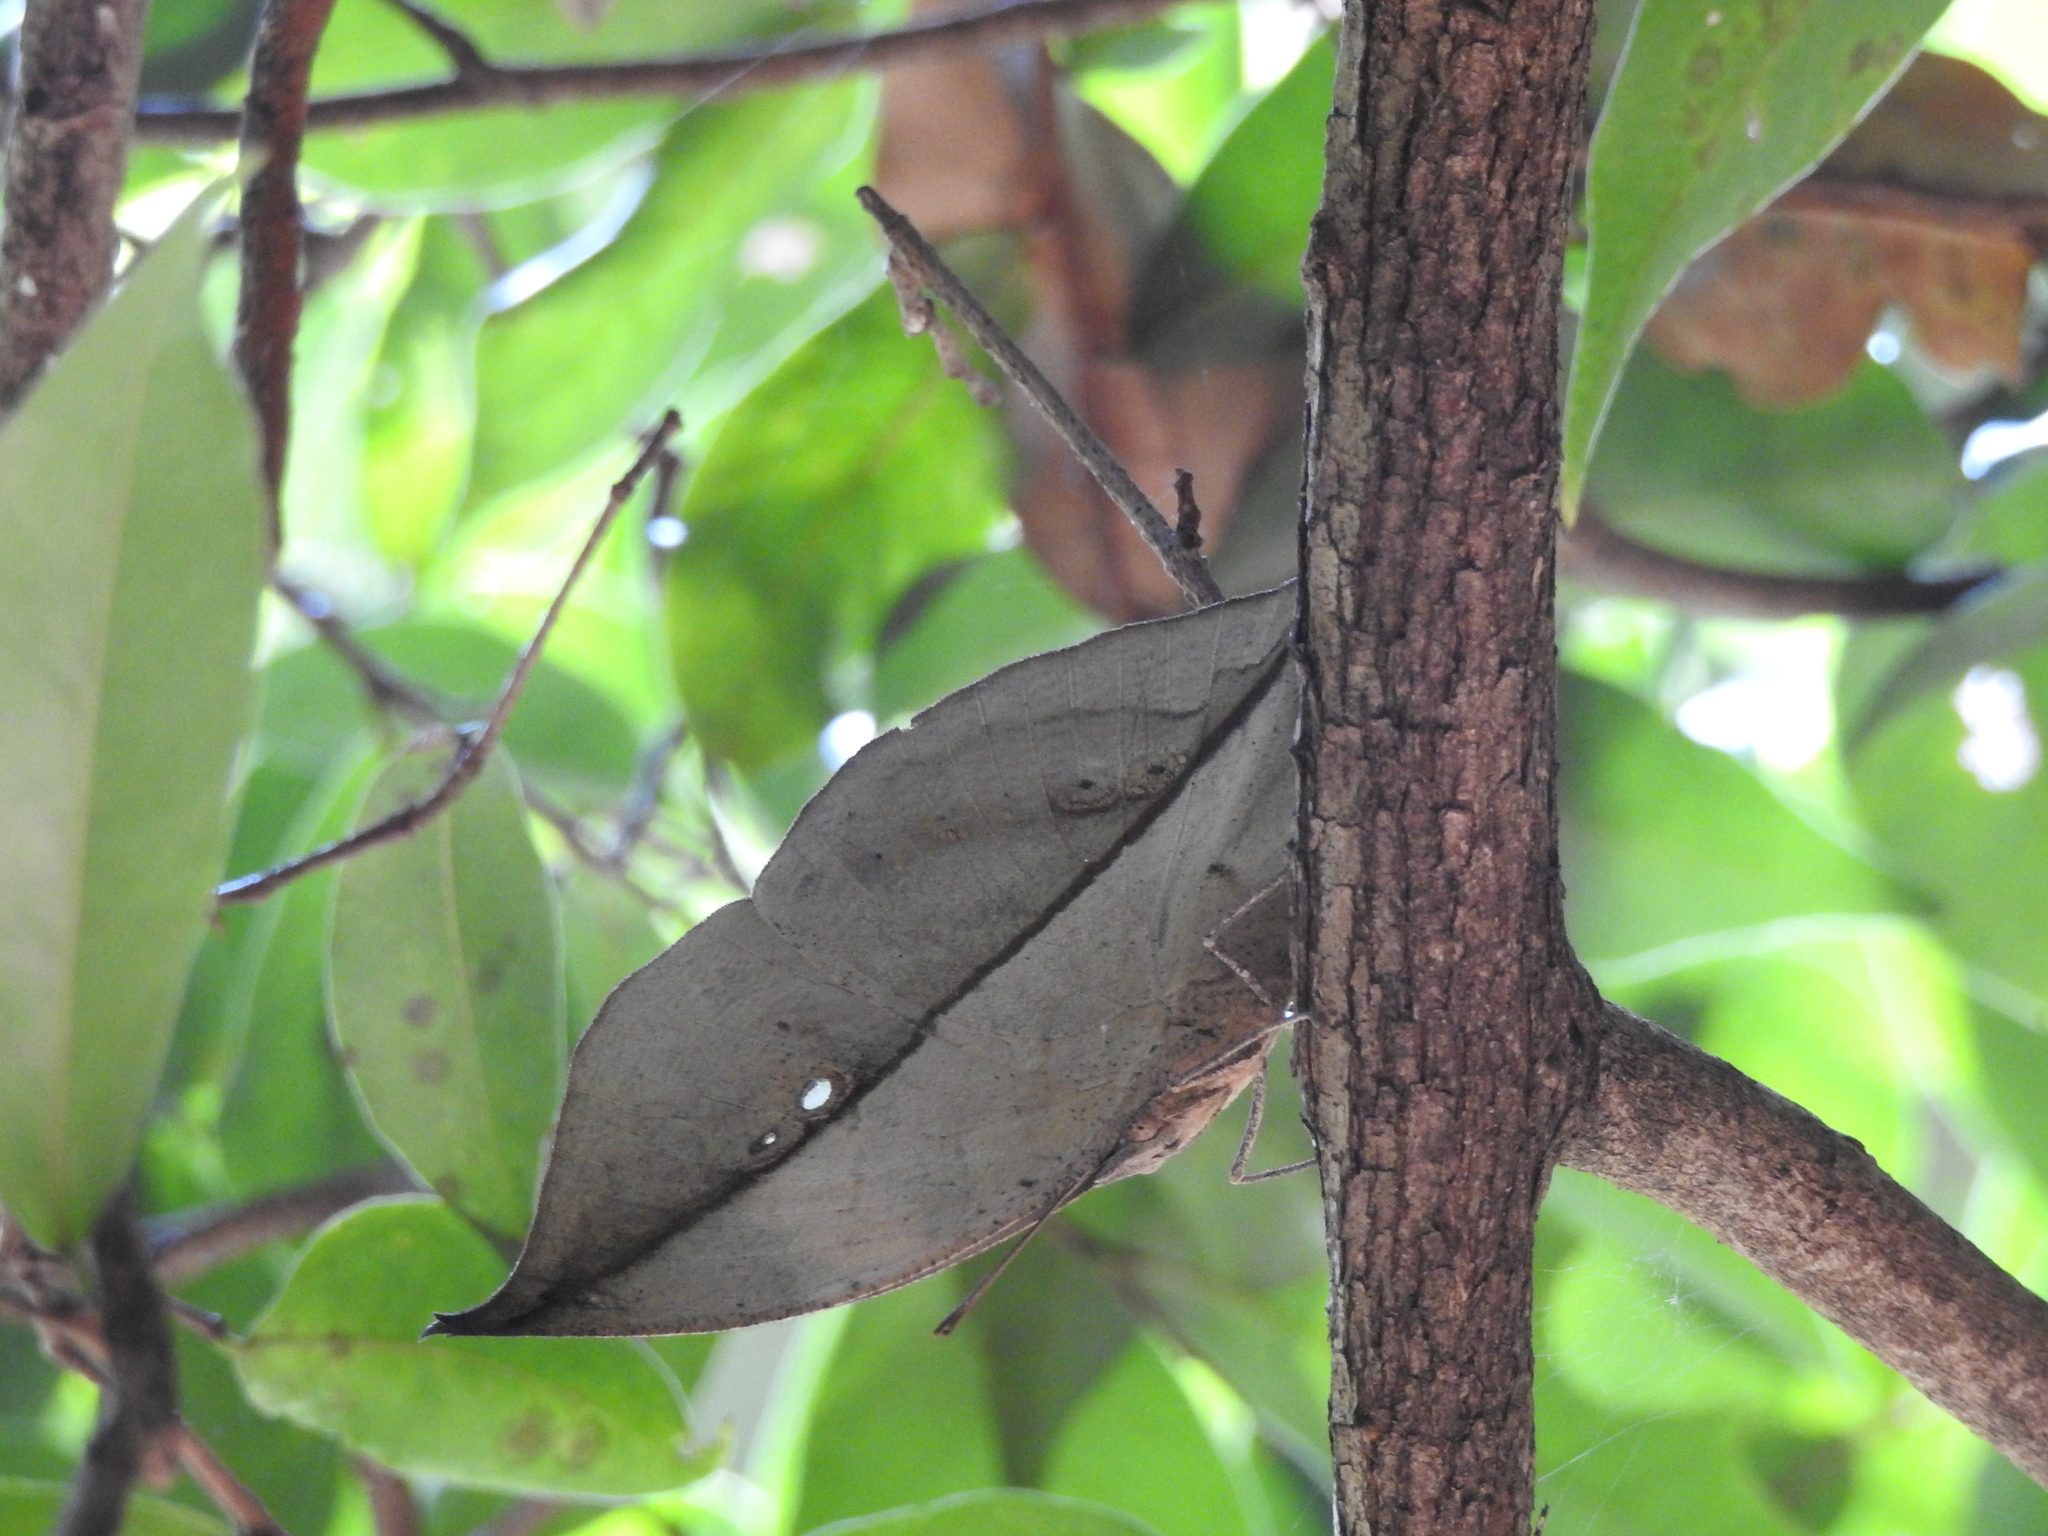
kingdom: Animalia
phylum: Arthropoda
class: Insecta
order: Lepidoptera
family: Nymphalidae
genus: Kallima
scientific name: Kallima horsfieldii
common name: Sahyadri blue oakleaf
